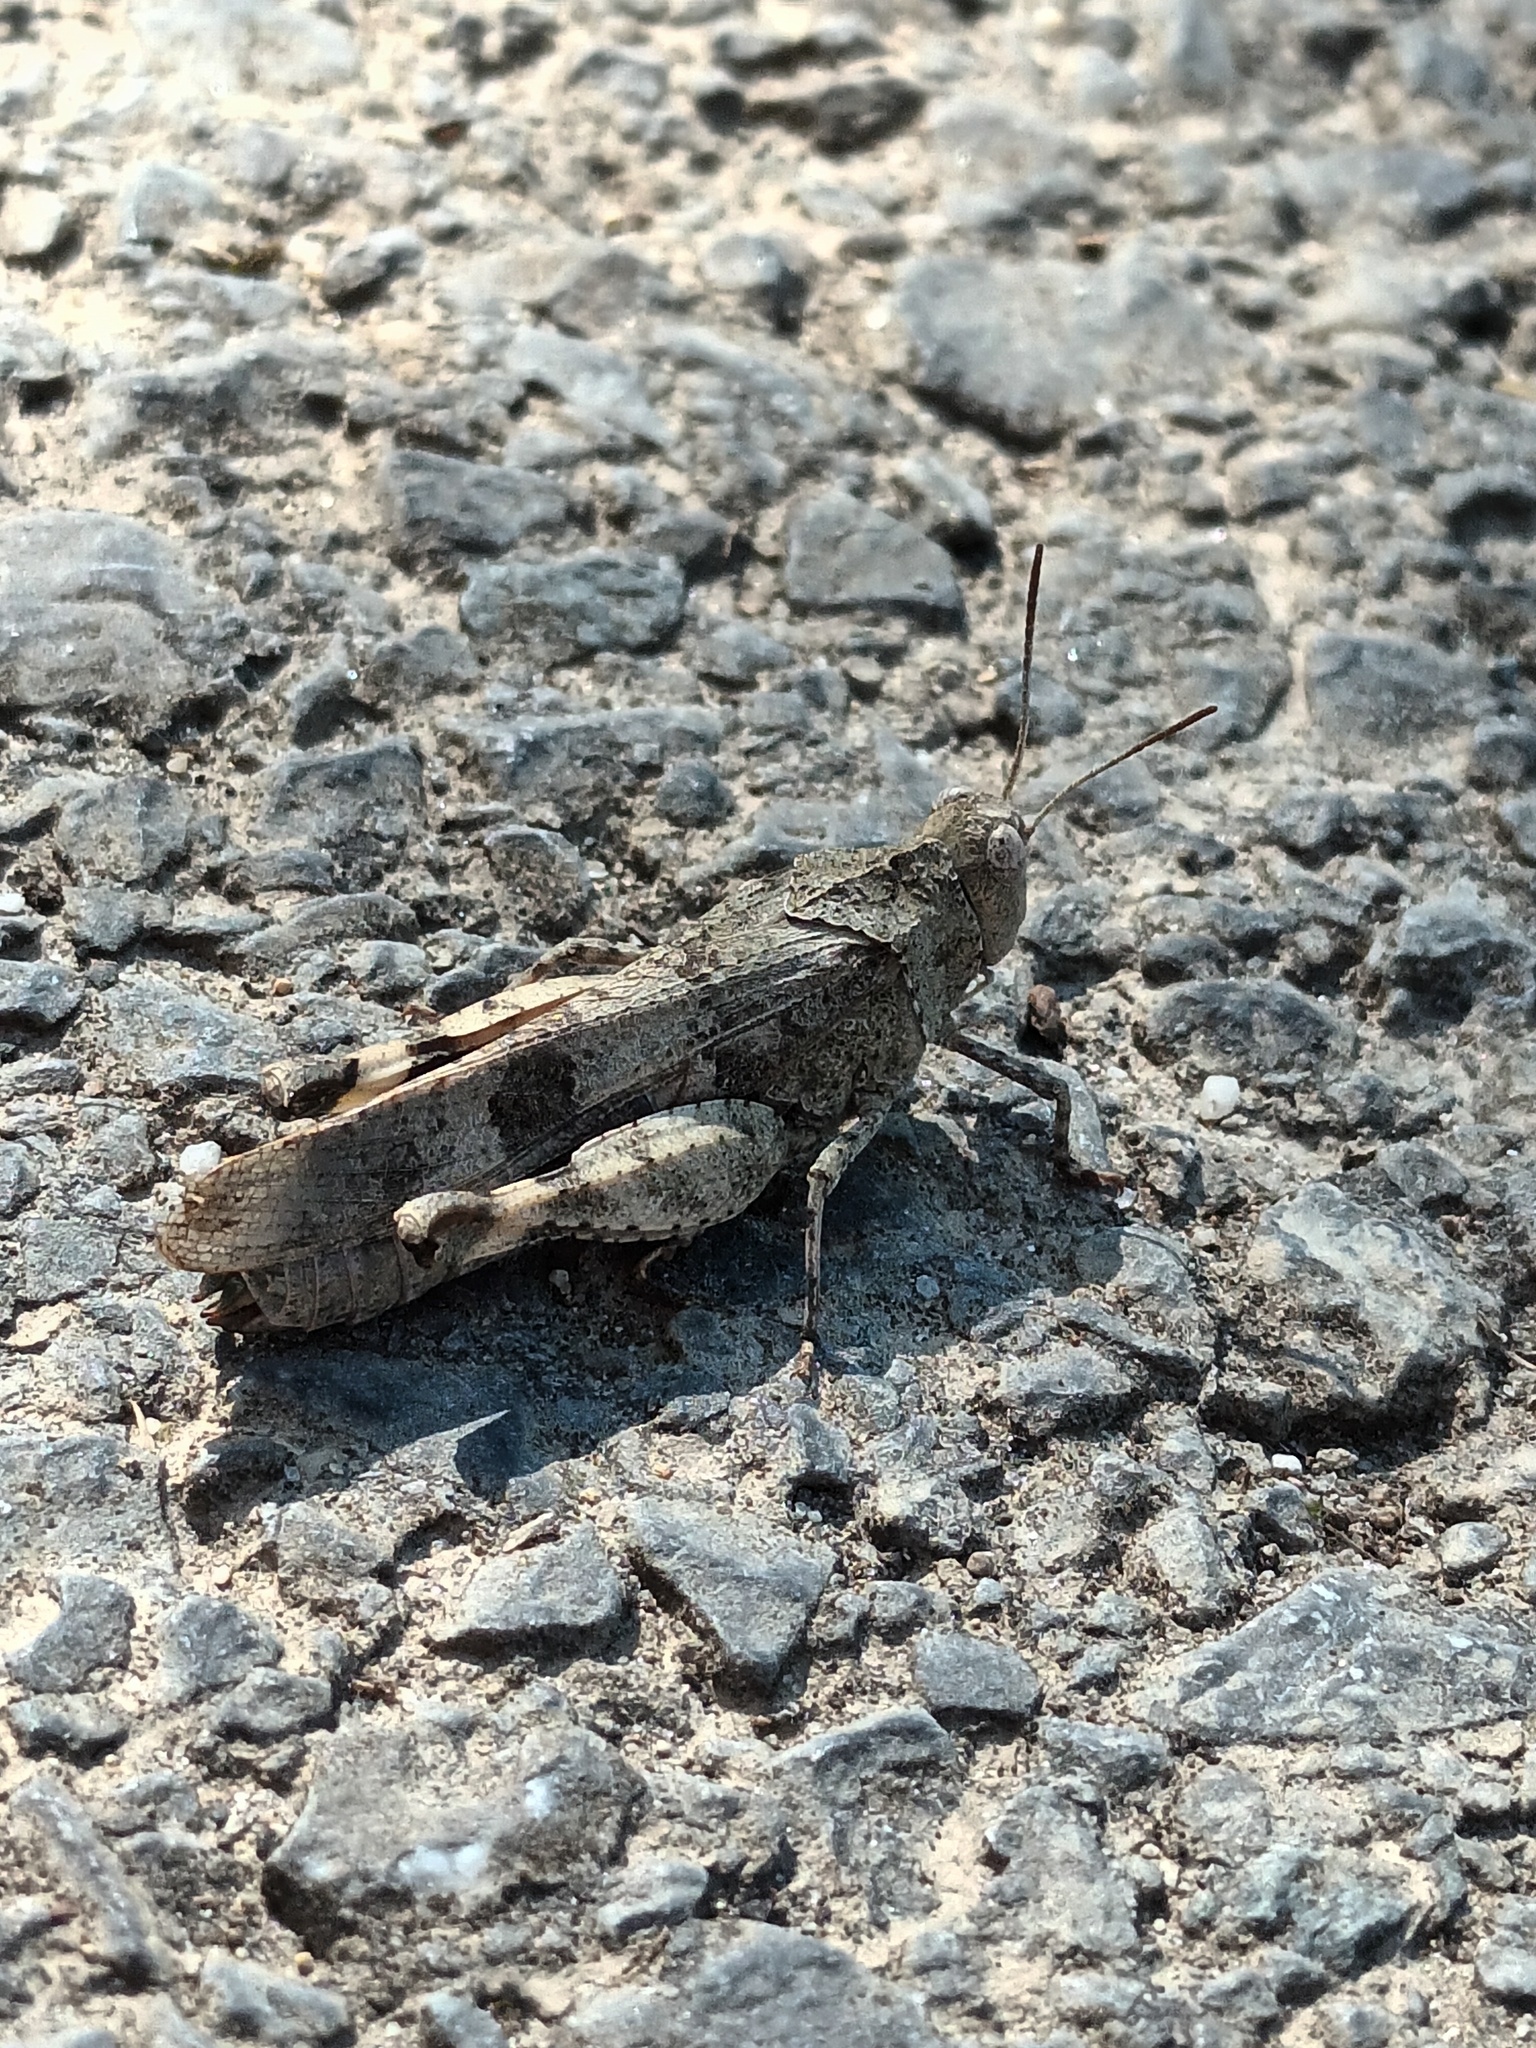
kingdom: Animalia
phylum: Arthropoda
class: Insecta
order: Orthoptera
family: Acrididae
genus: Oedipoda
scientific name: Oedipoda caerulescens
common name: Blue-winged grasshopper
